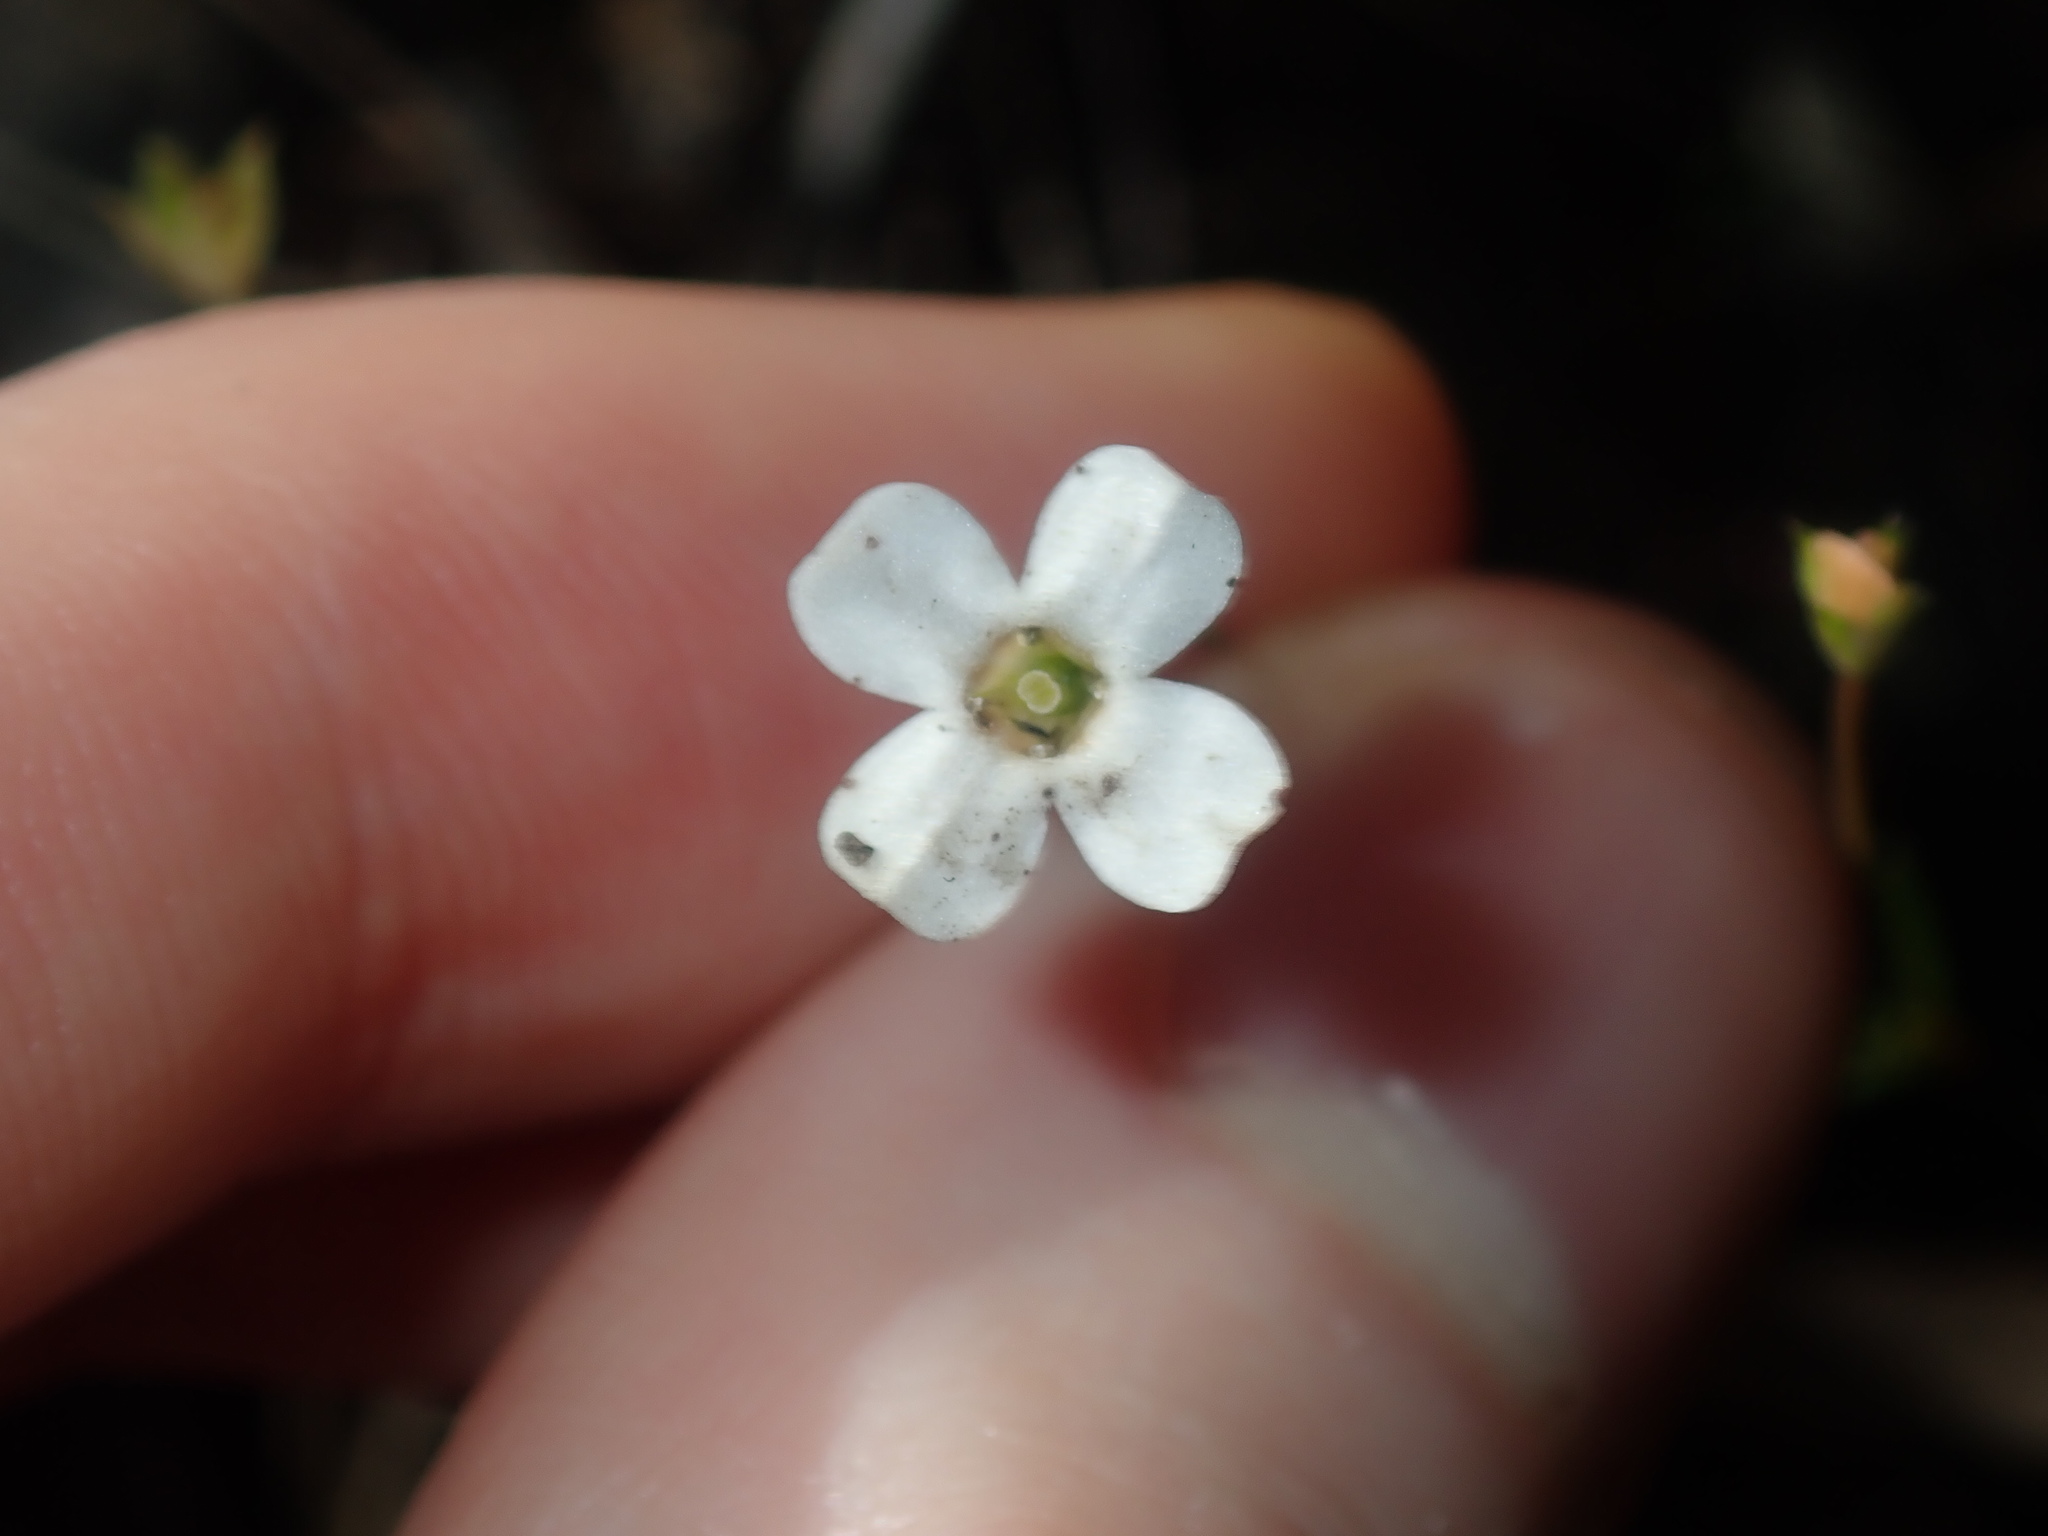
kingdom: Plantae
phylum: Tracheophyta
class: Magnoliopsida
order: Gentianales
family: Loganiaceae
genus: Mitrasacme
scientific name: Mitrasacme polymorpha
